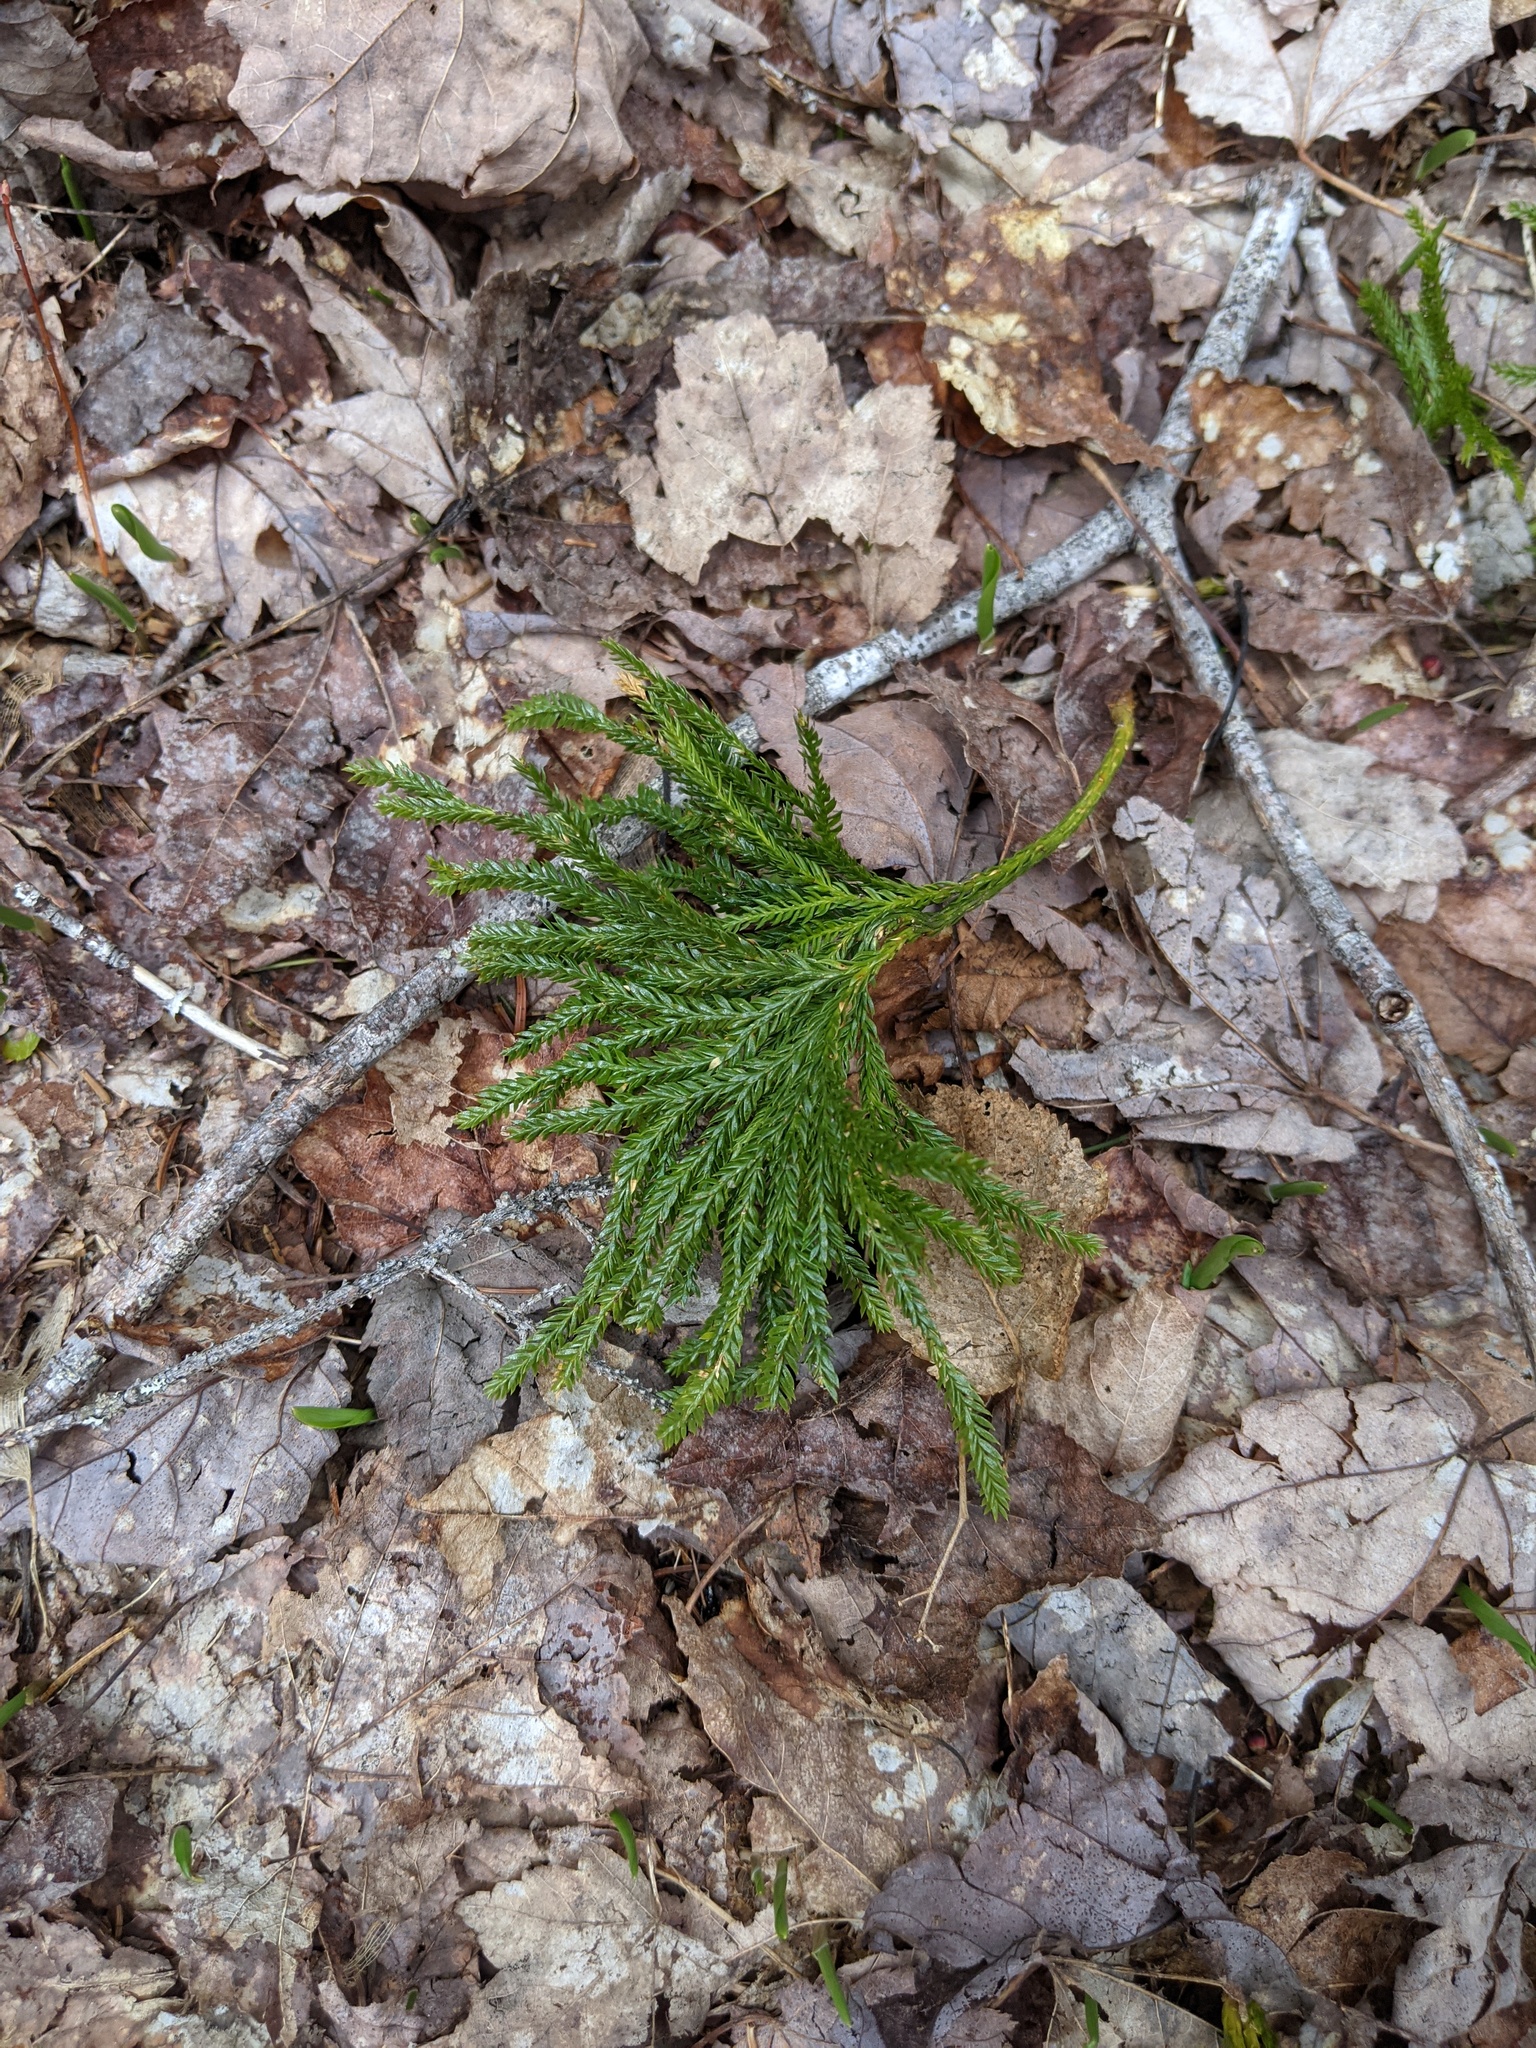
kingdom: Plantae
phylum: Tracheophyta
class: Lycopodiopsida
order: Lycopodiales
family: Lycopodiaceae
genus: Dendrolycopodium
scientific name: Dendrolycopodium obscurum
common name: Common ground-pine
